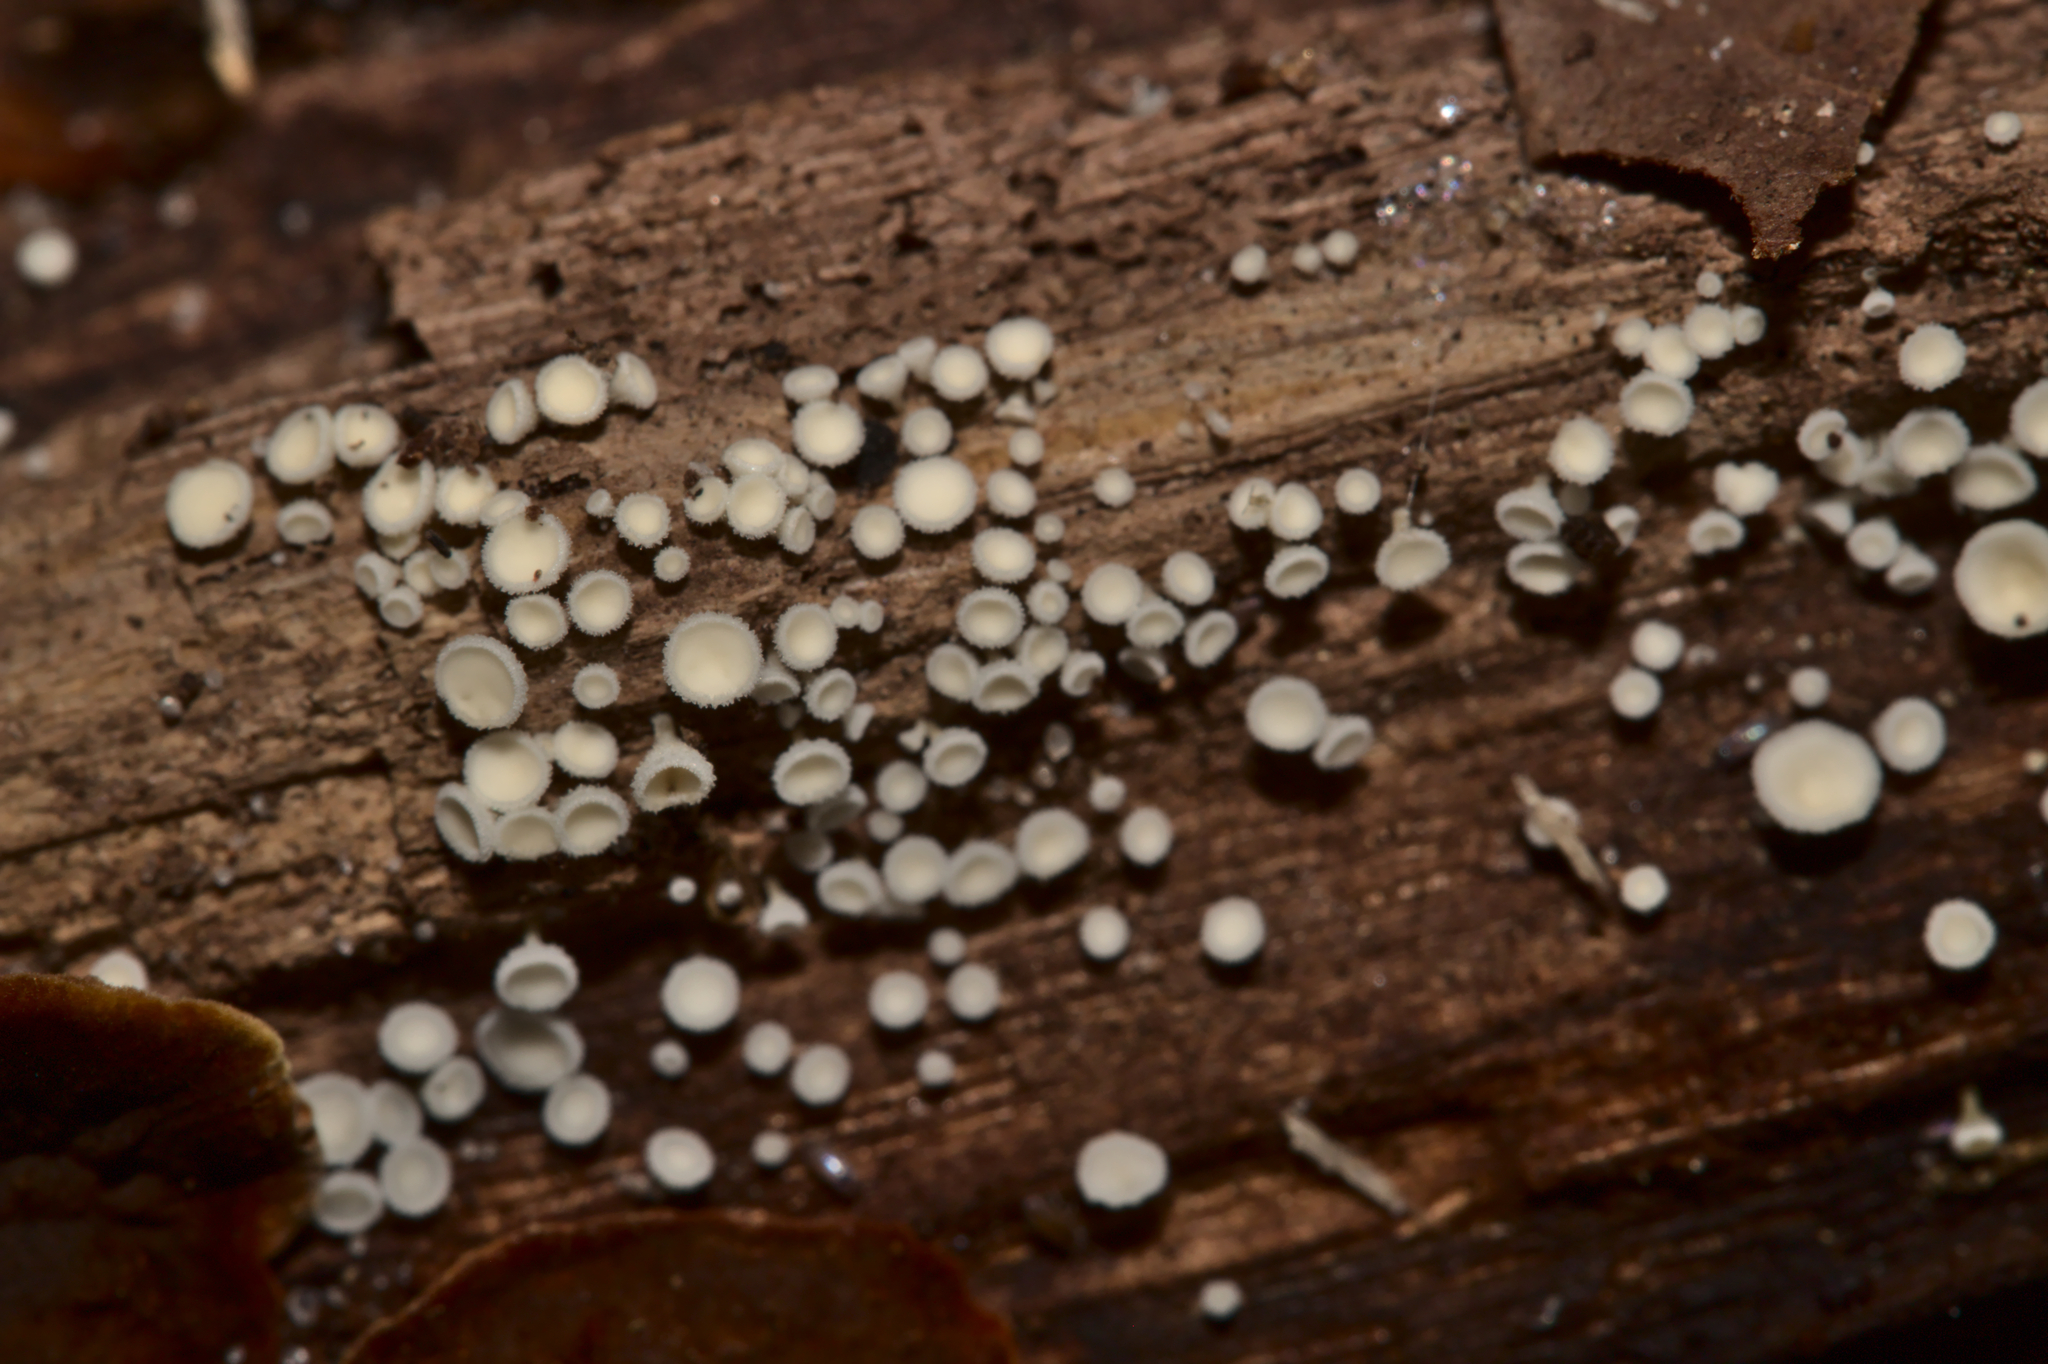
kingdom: Fungi
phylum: Ascomycota
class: Leotiomycetes
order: Helotiales
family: Lachnaceae
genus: Lachnum
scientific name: Lachnum
